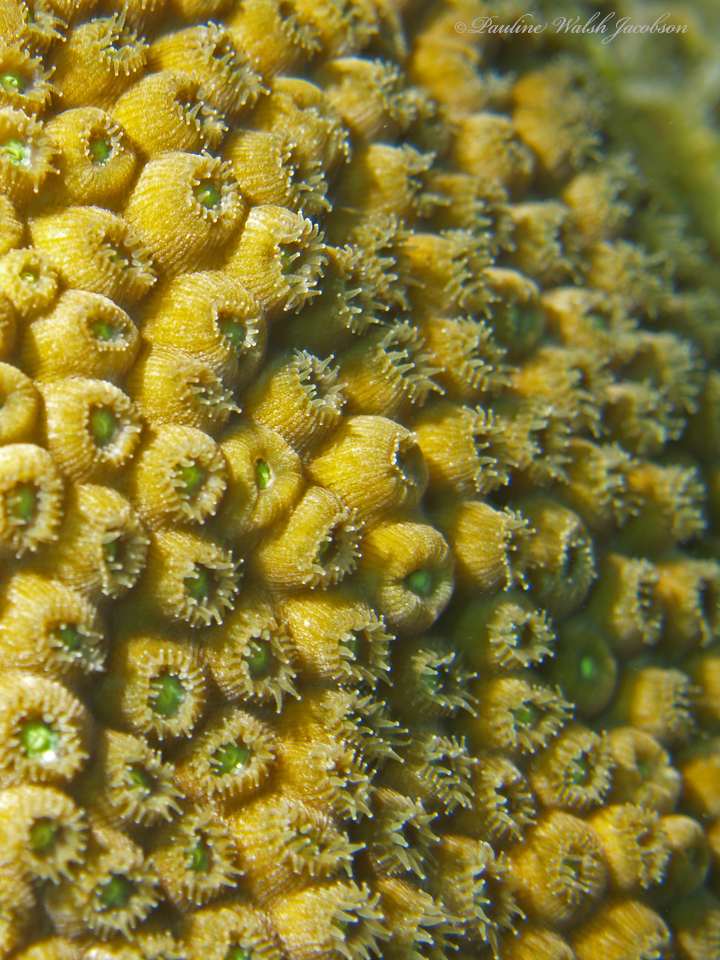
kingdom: Animalia
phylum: Cnidaria
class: Anthozoa
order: Scleractinia
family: Montastraeidae
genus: Montastraea
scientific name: Montastraea cavernosa
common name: Great star coral
